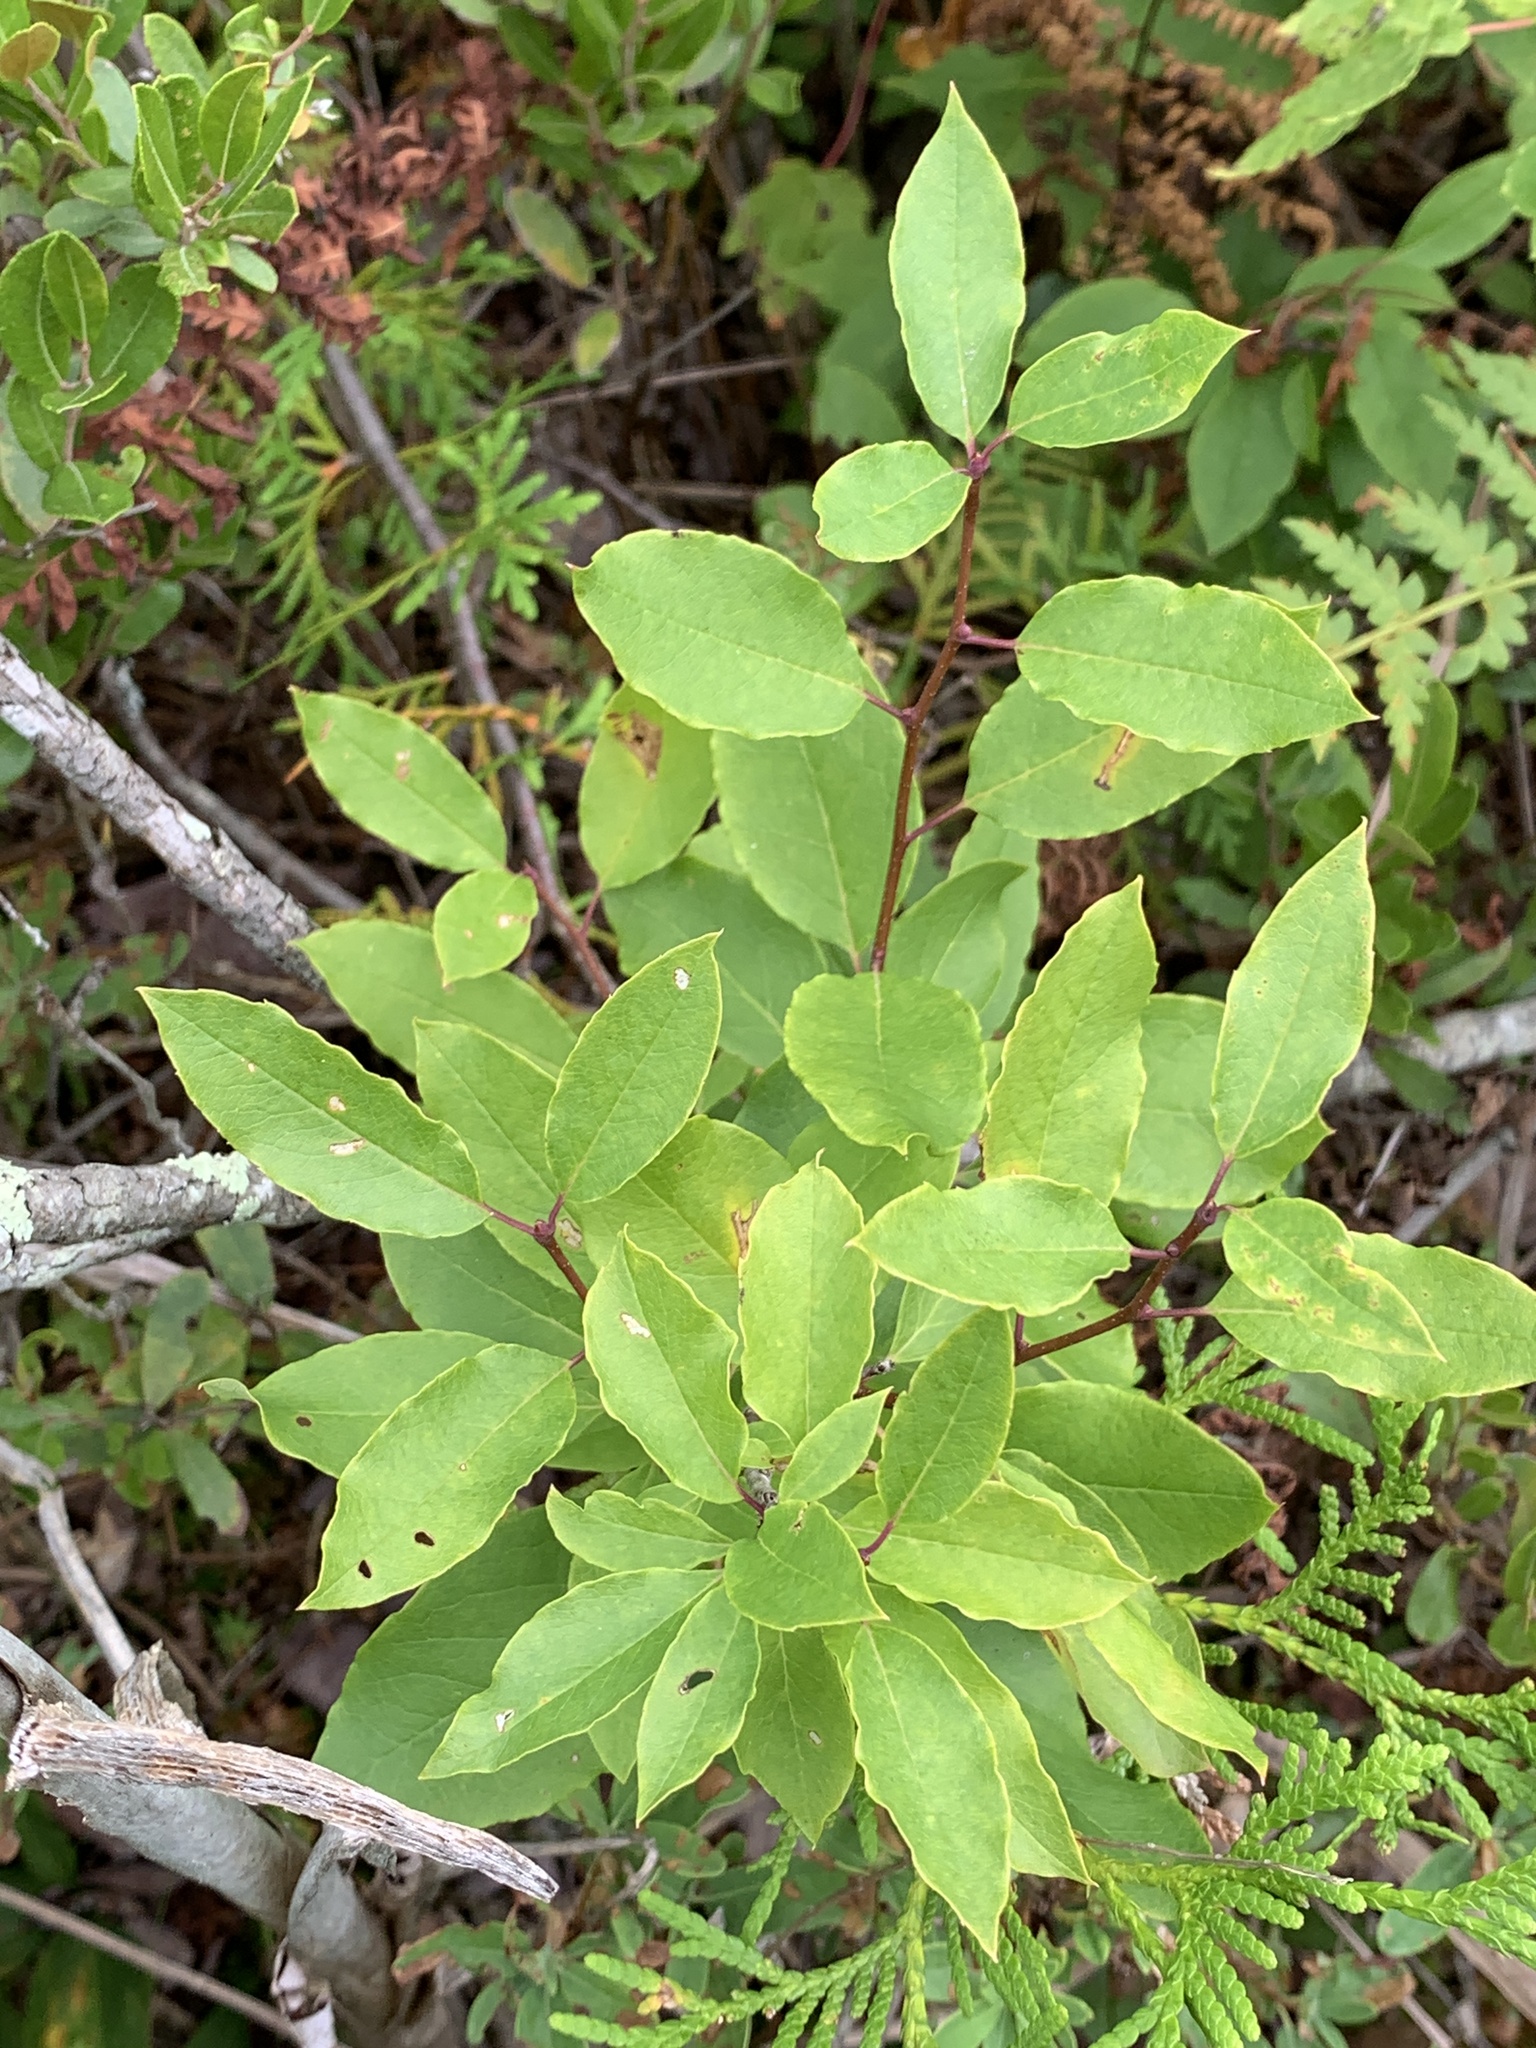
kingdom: Plantae
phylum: Tracheophyta
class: Magnoliopsida
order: Aquifoliales
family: Aquifoliaceae
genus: Ilex
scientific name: Ilex mucronata
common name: Catberry
